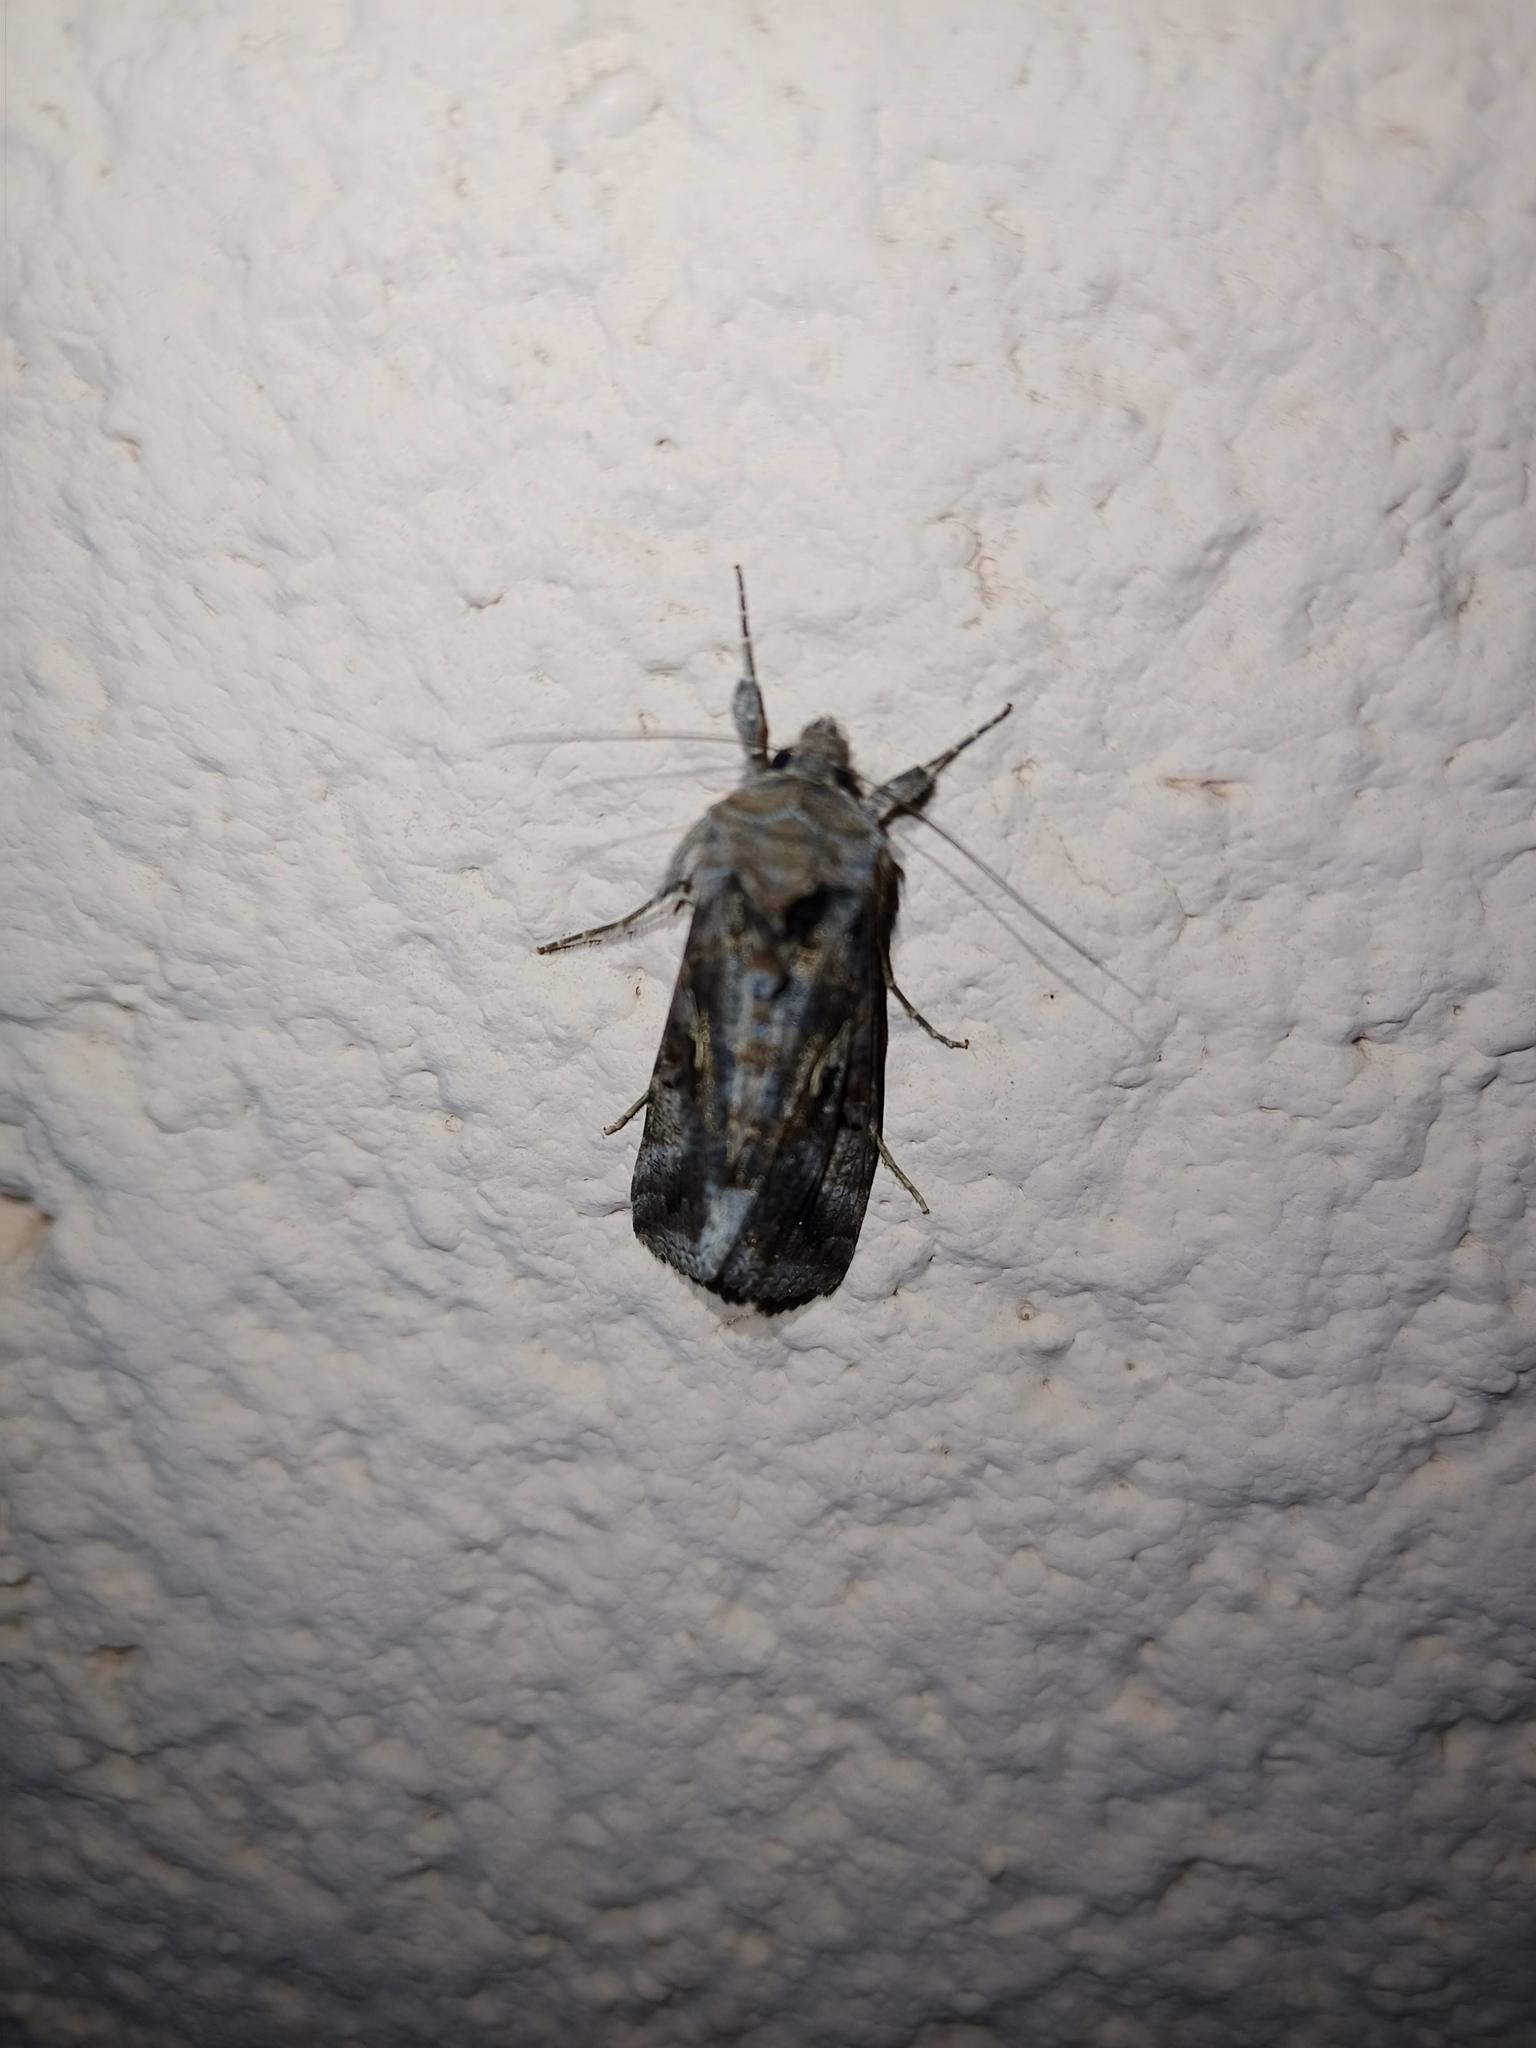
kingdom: Animalia
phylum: Arthropoda
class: Insecta
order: Lepidoptera
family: Noctuidae
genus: Autographa
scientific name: Autographa gamma
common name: Silver y
